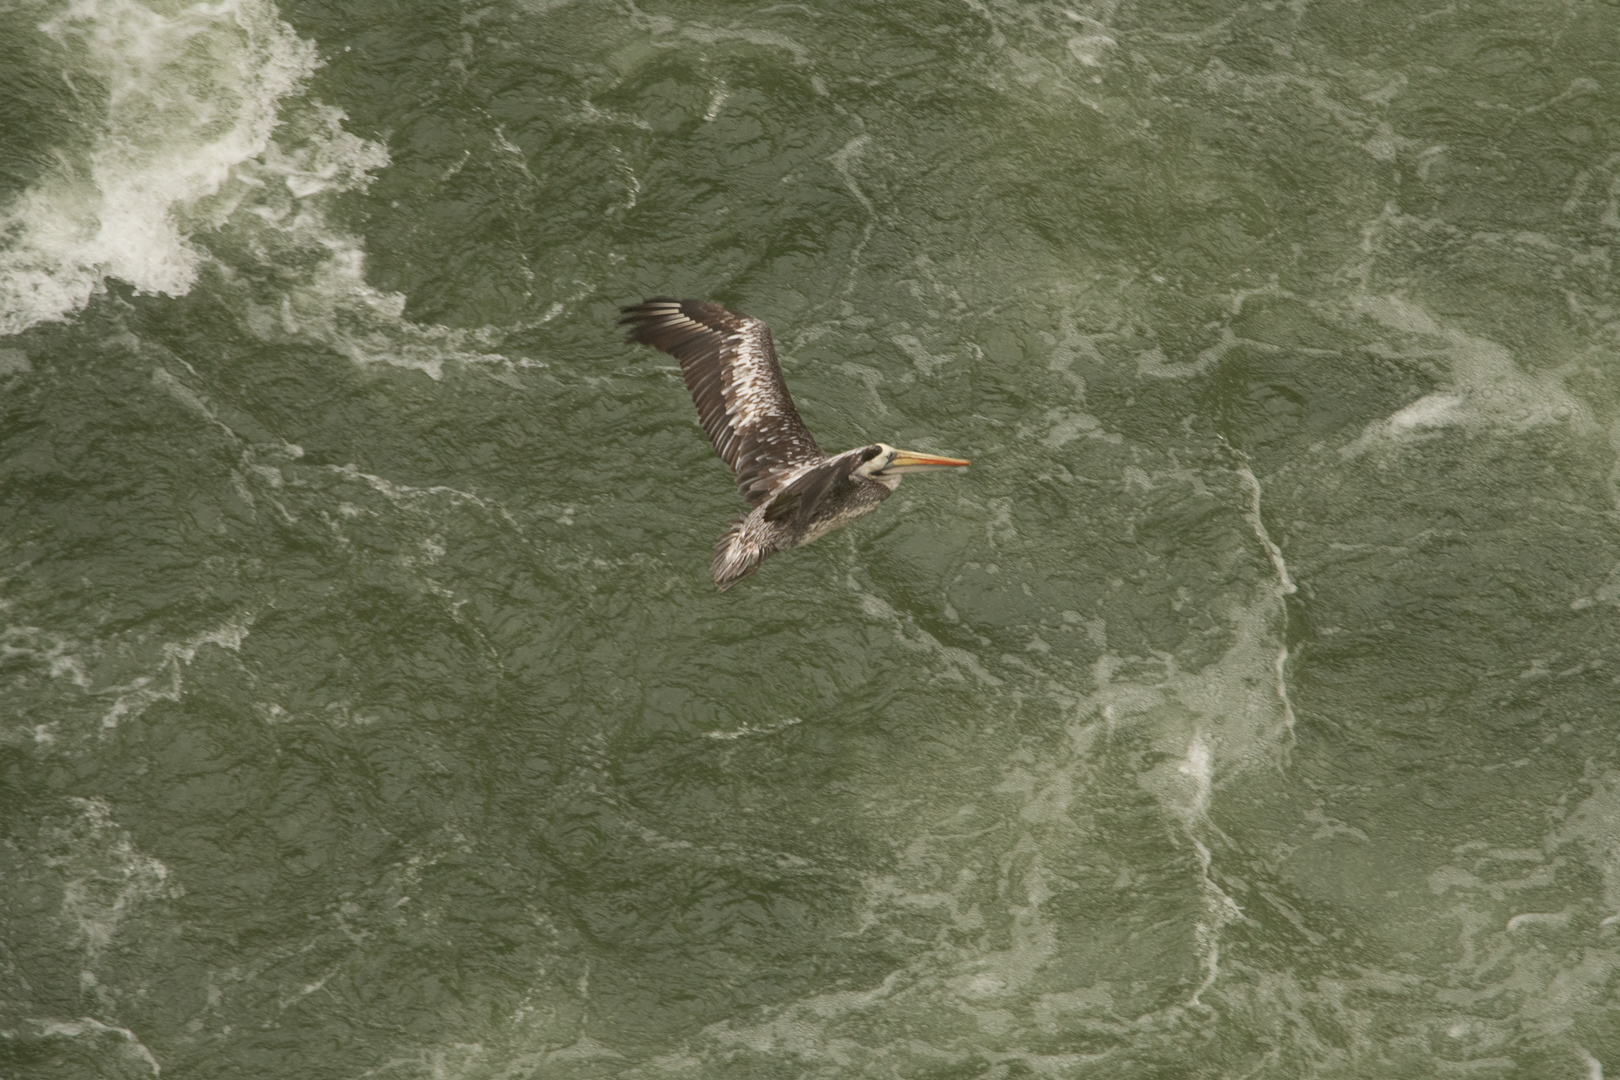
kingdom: Animalia
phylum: Chordata
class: Aves
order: Pelecaniformes
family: Pelecanidae
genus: Pelecanus
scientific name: Pelecanus thagus
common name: Peruvian pelican
